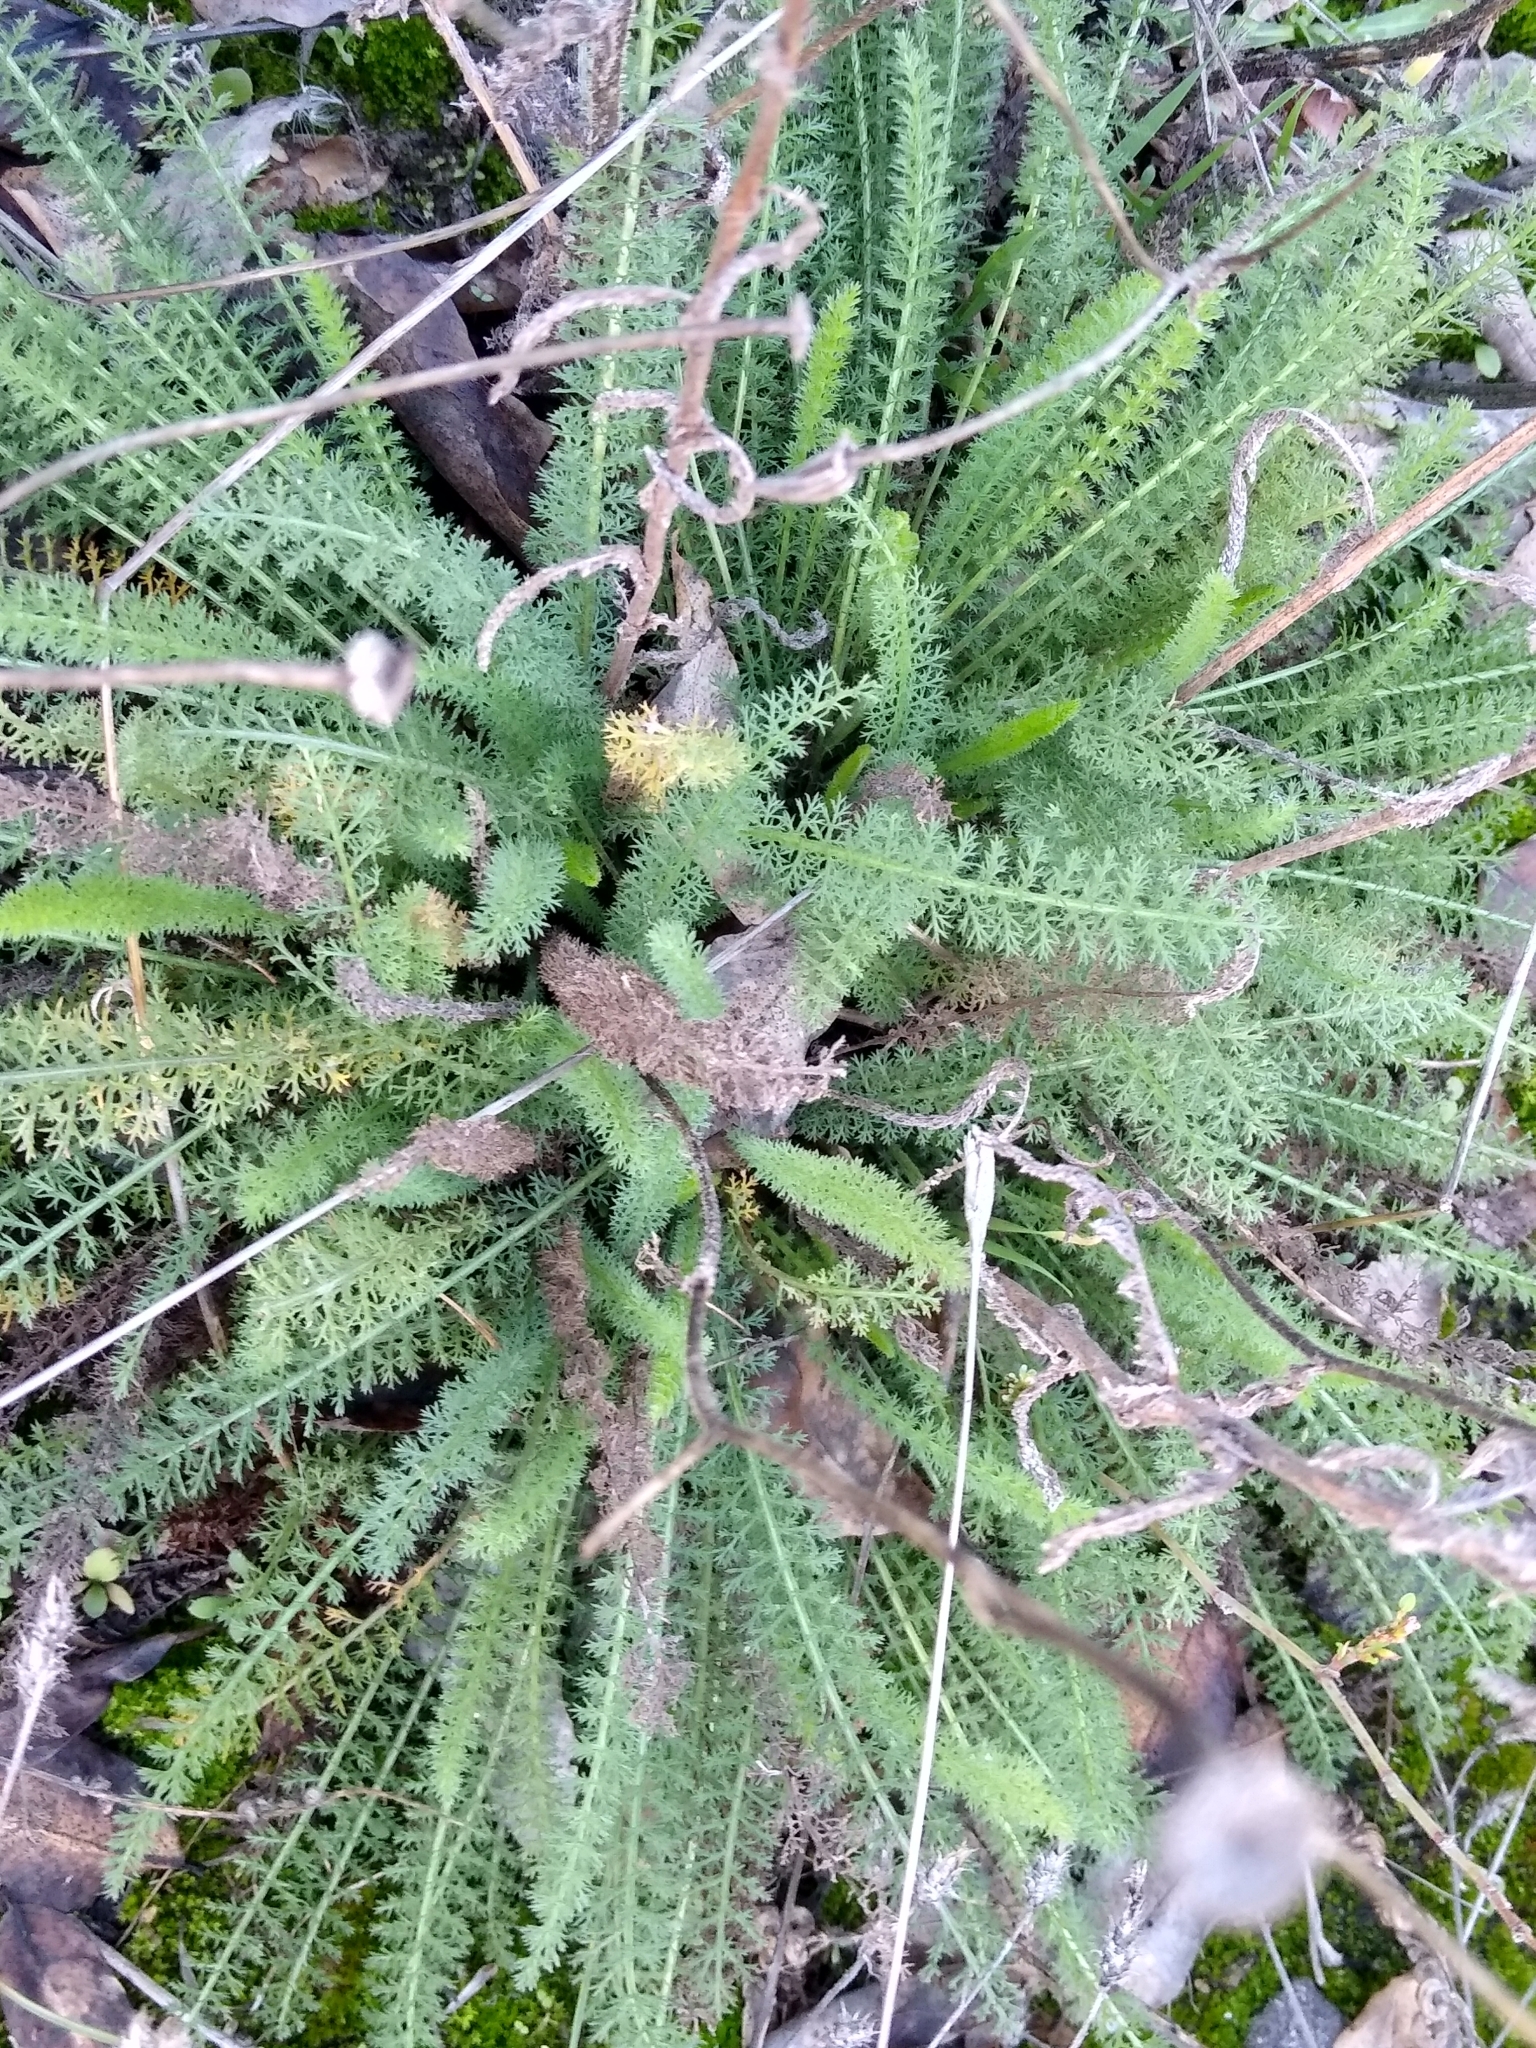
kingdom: Plantae
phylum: Tracheophyta
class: Magnoliopsida
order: Asterales
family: Asteraceae
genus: Achillea
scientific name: Achillea millefolium
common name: Yarrow
